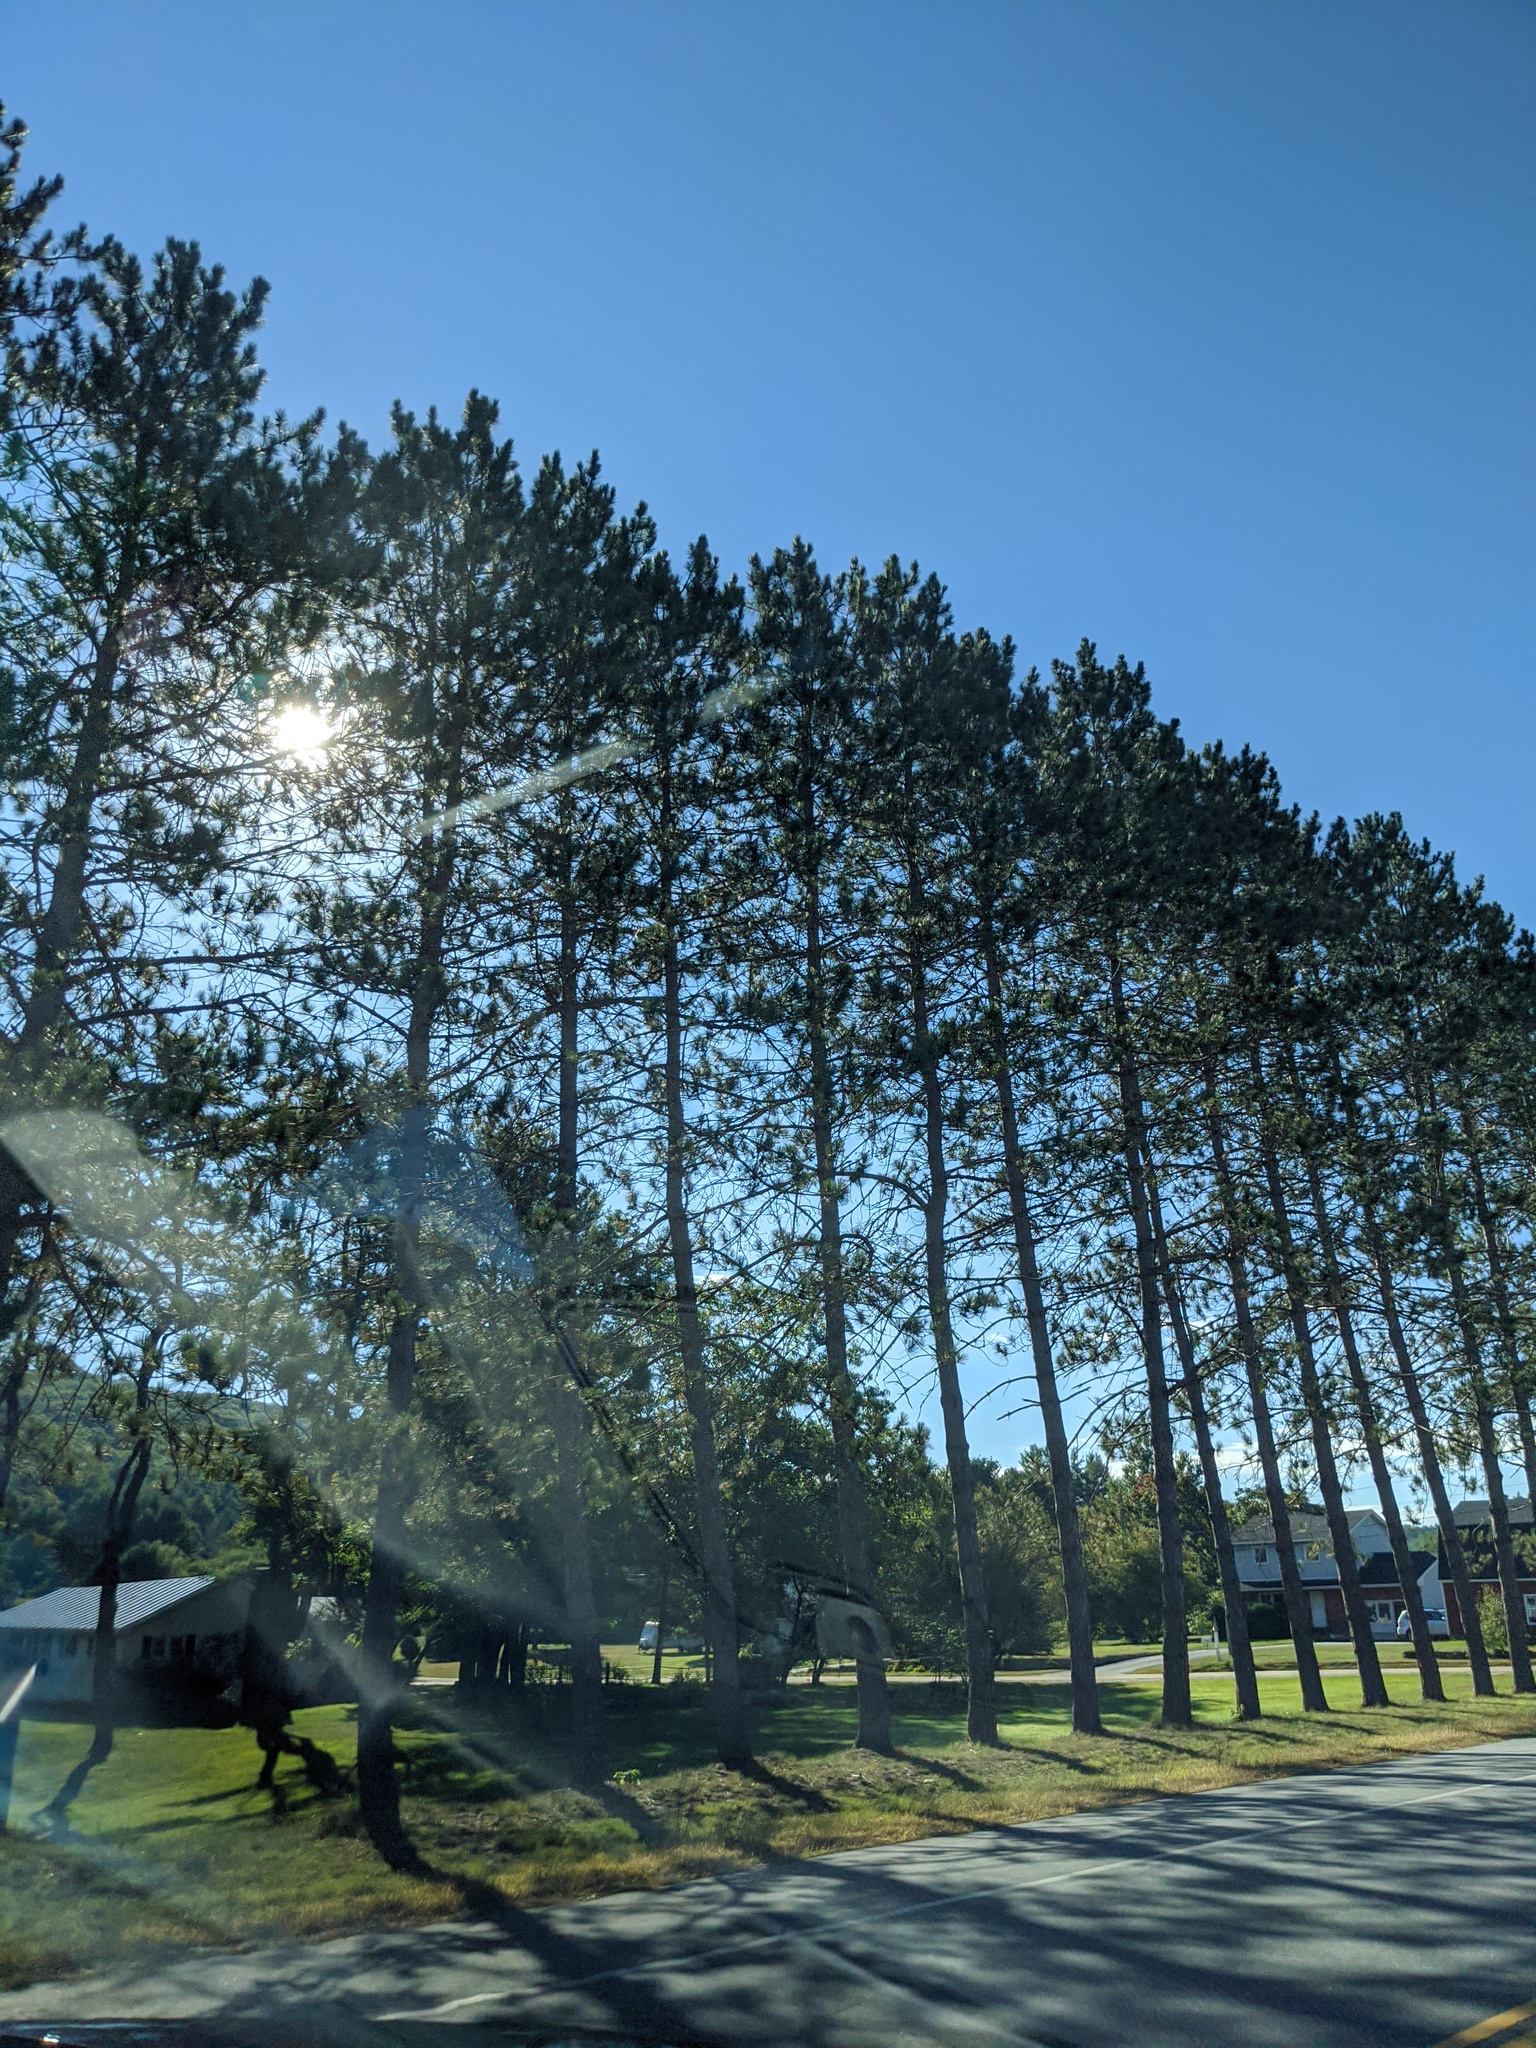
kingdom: Plantae
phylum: Tracheophyta
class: Pinopsida
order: Pinales
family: Pinaceae
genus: Pinus
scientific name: Pinus resinosa
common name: Norway pine
